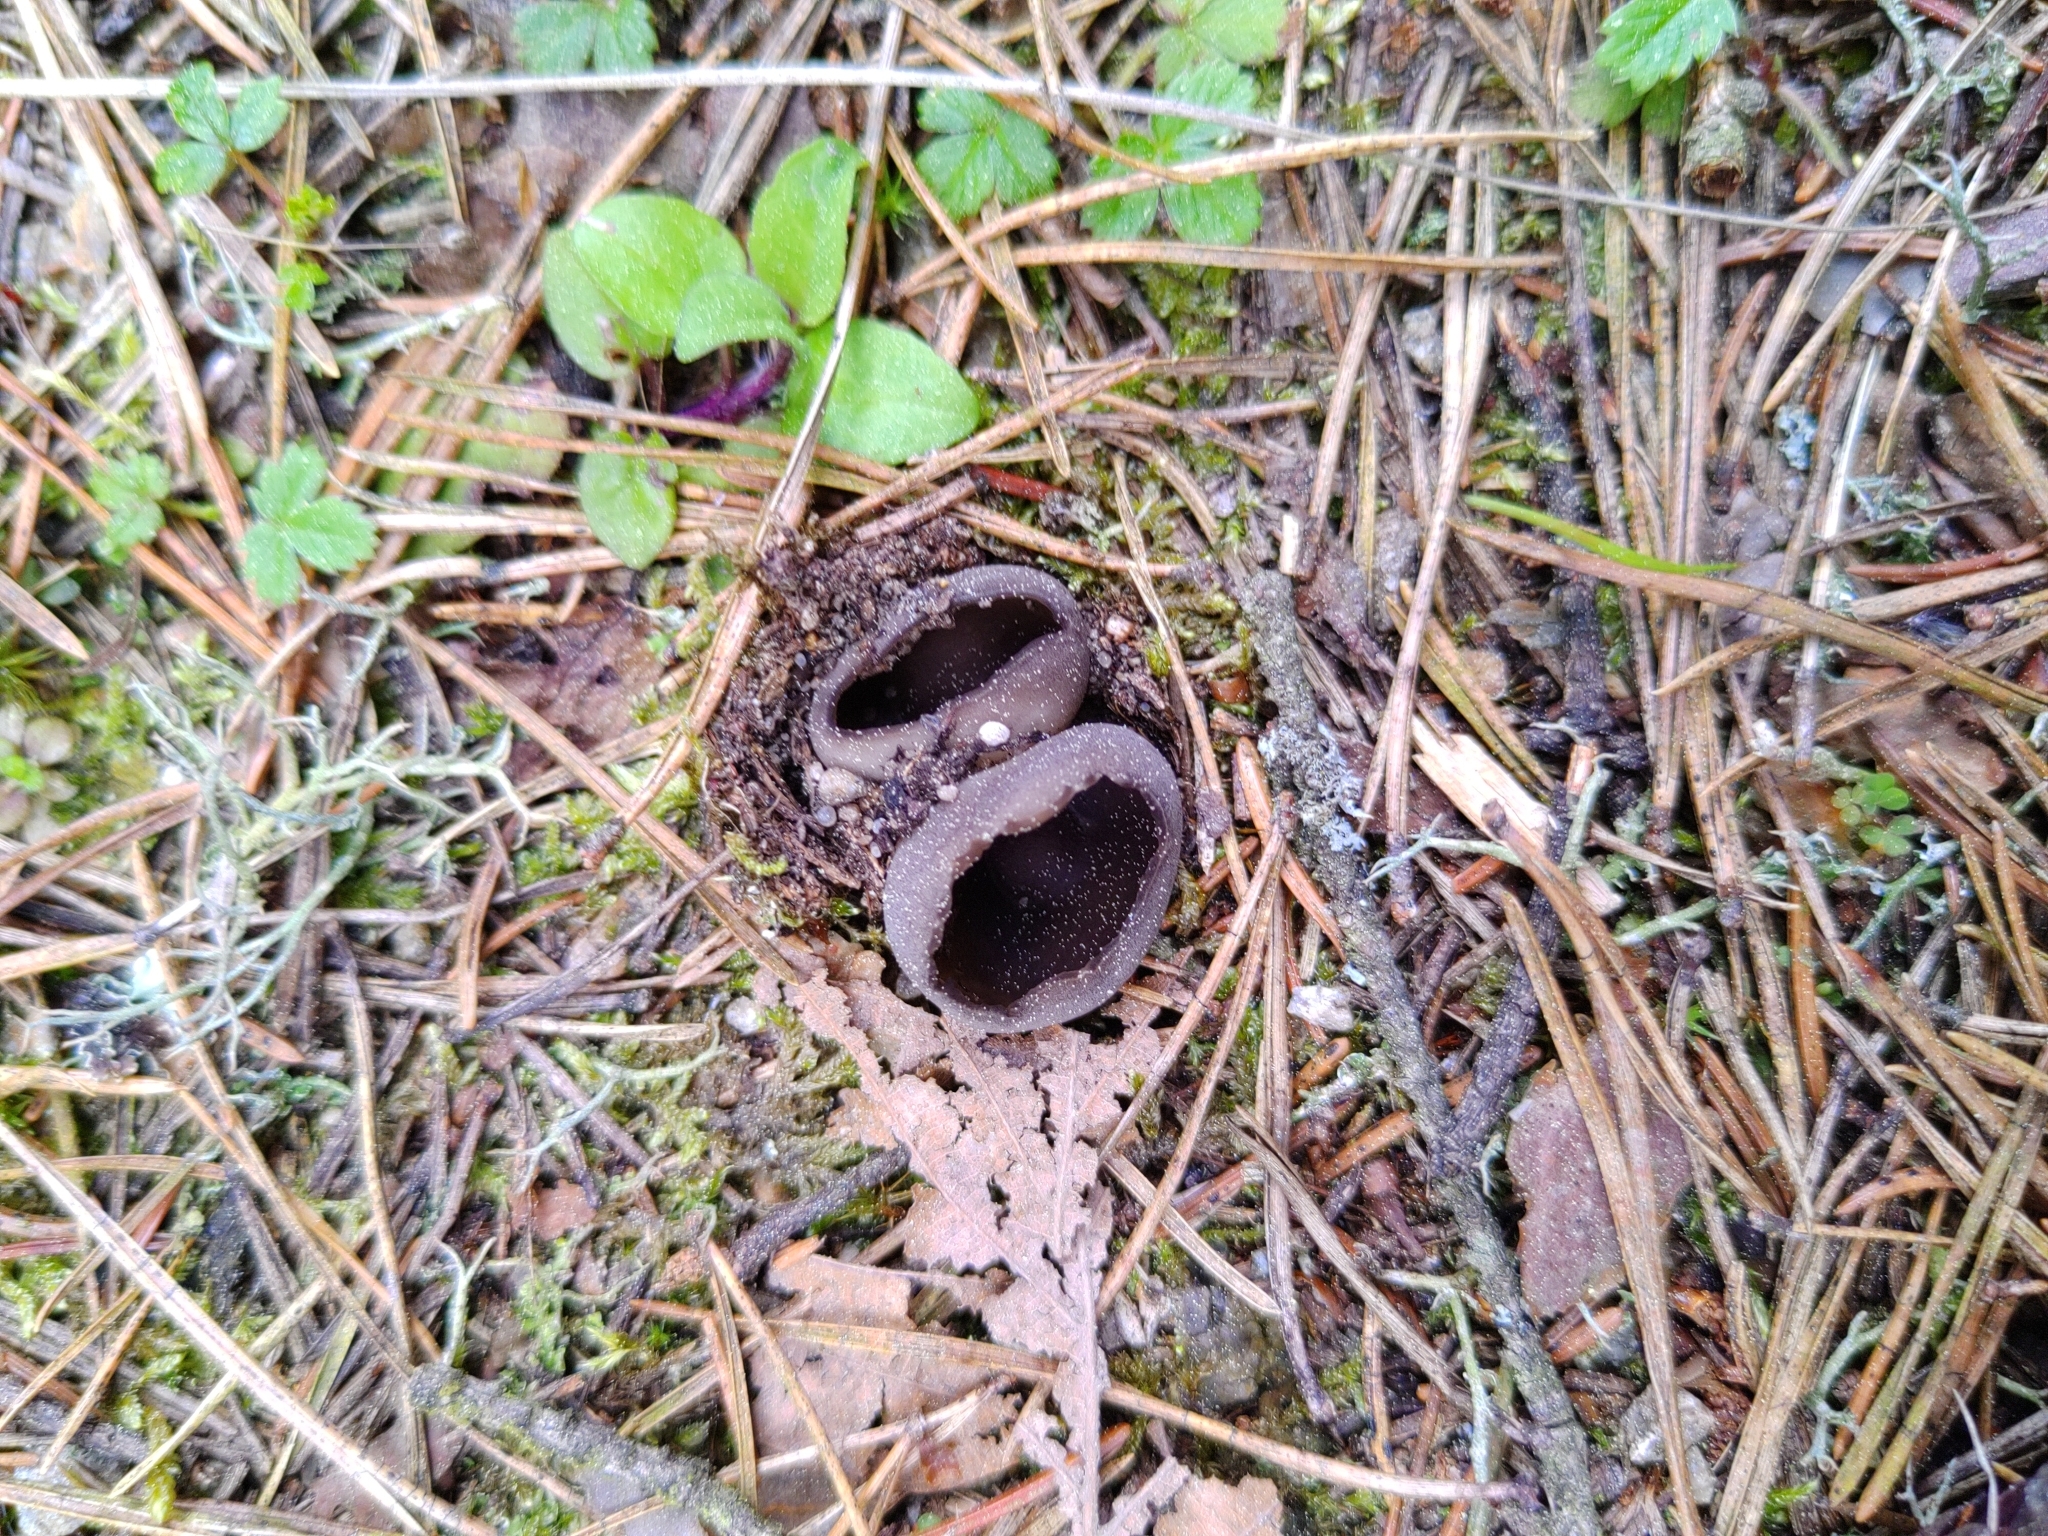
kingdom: Fungi
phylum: Ascomycota
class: Pezizomycetes
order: Pezizales
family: Helvellaceae
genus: Dissingia
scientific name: Dissingia leucomelaena
